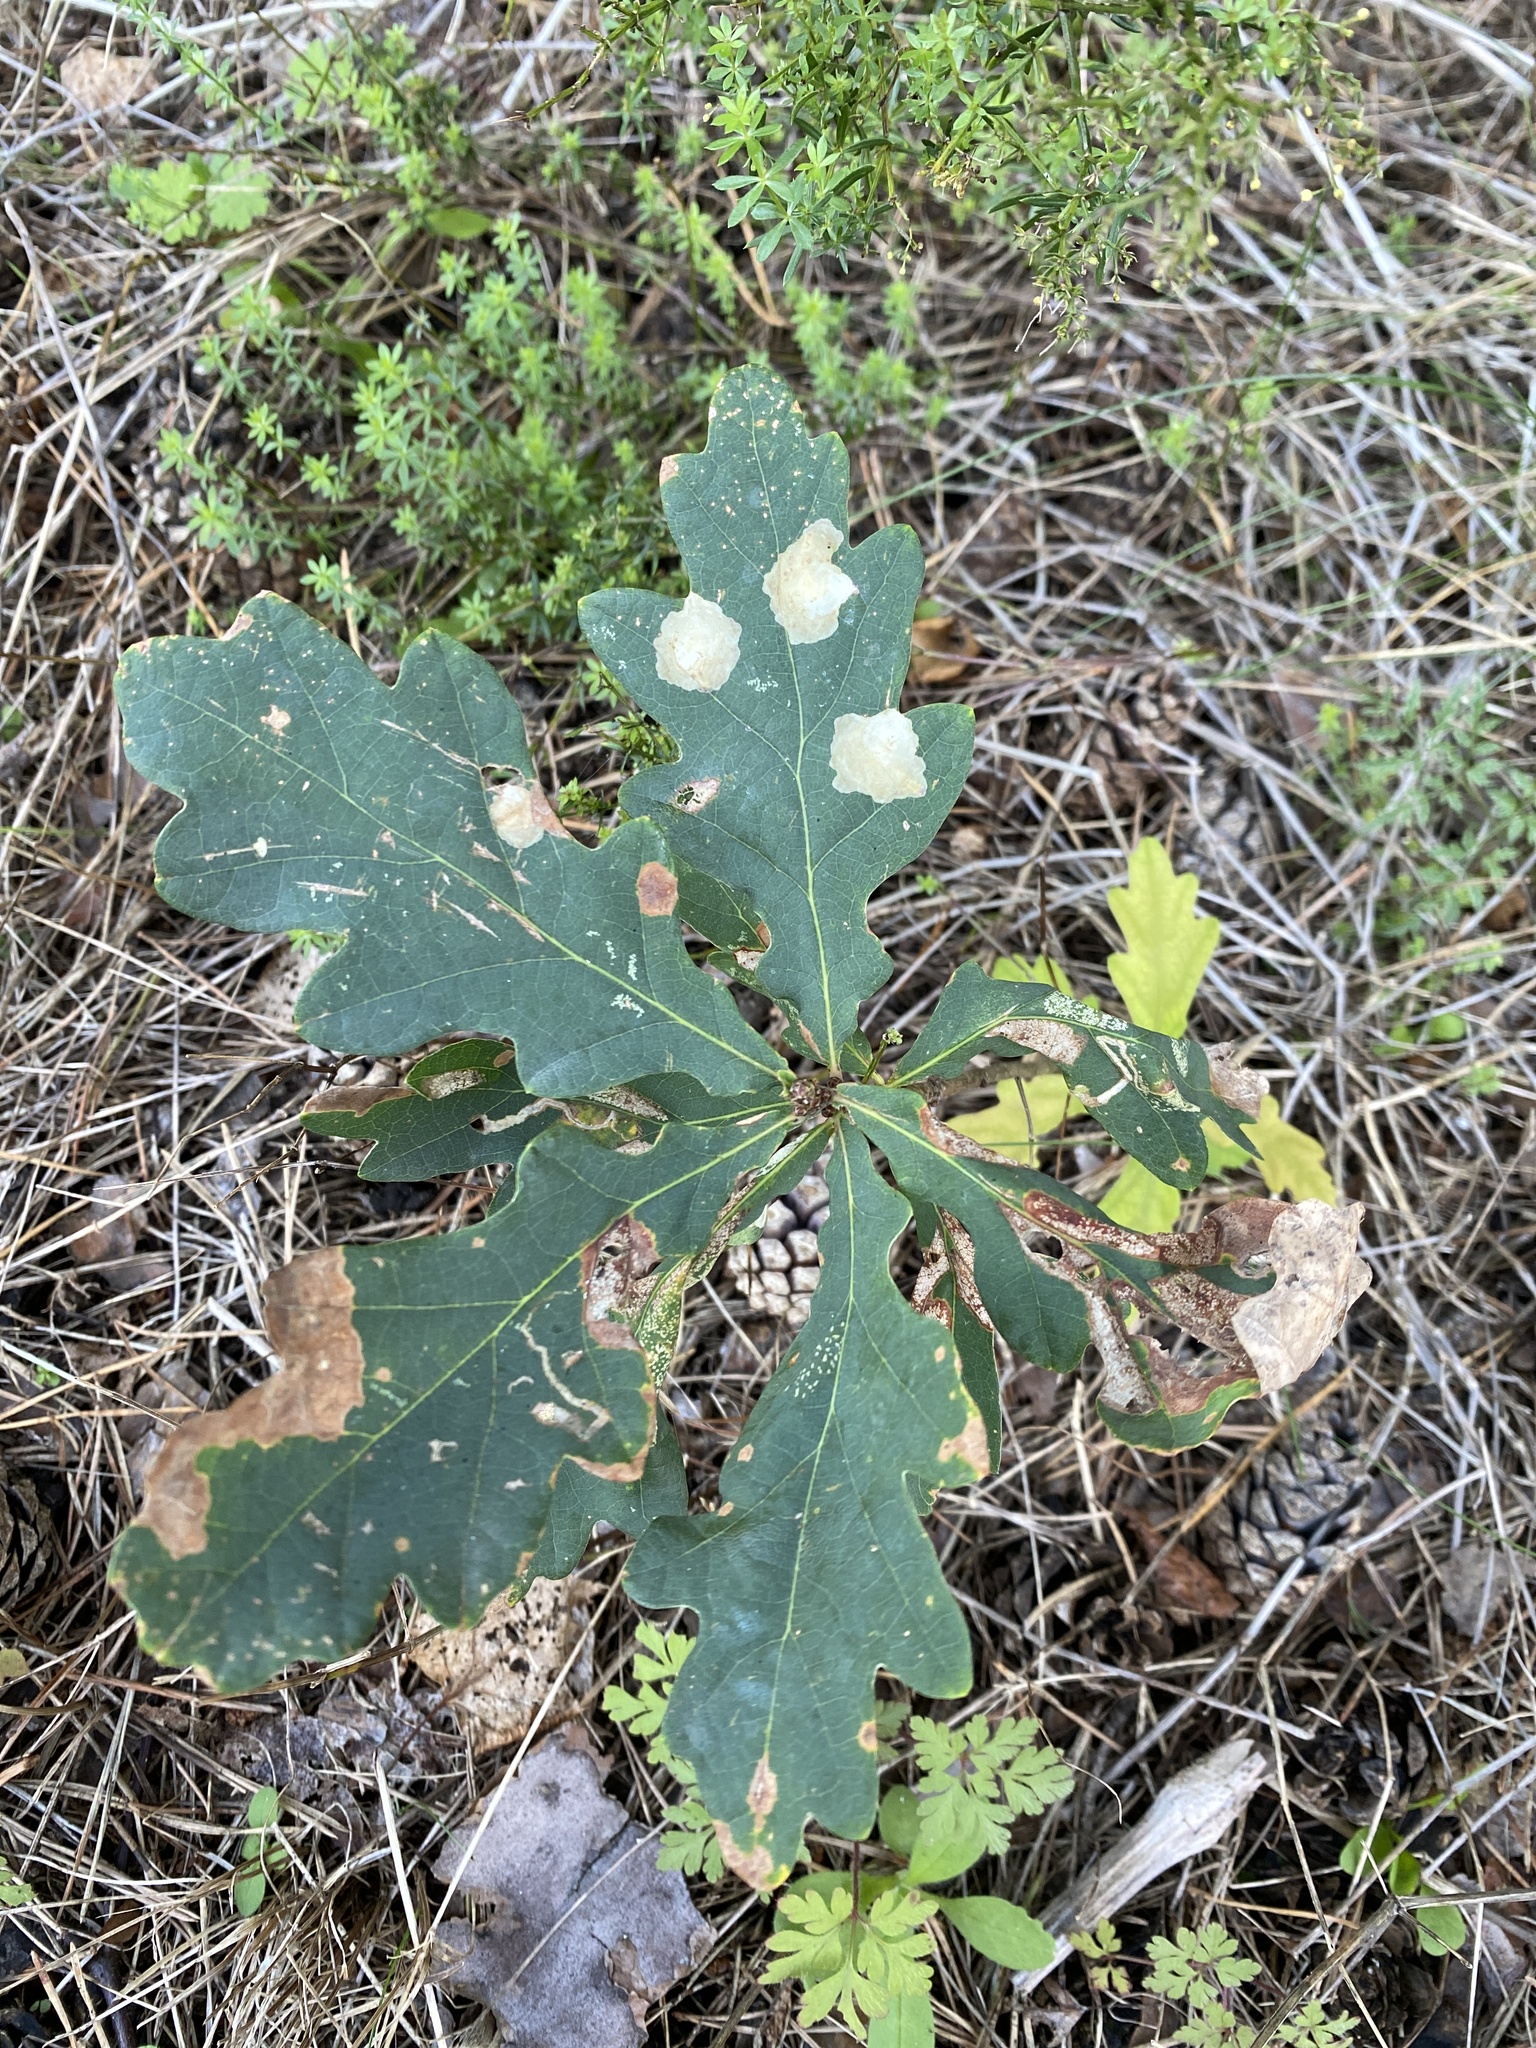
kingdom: Animalia
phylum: Arthropoda
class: Insecta
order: Lepidoptera
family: Tischeriidae
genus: Tischeria
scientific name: Tischeria ekebladella
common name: Oak carl
